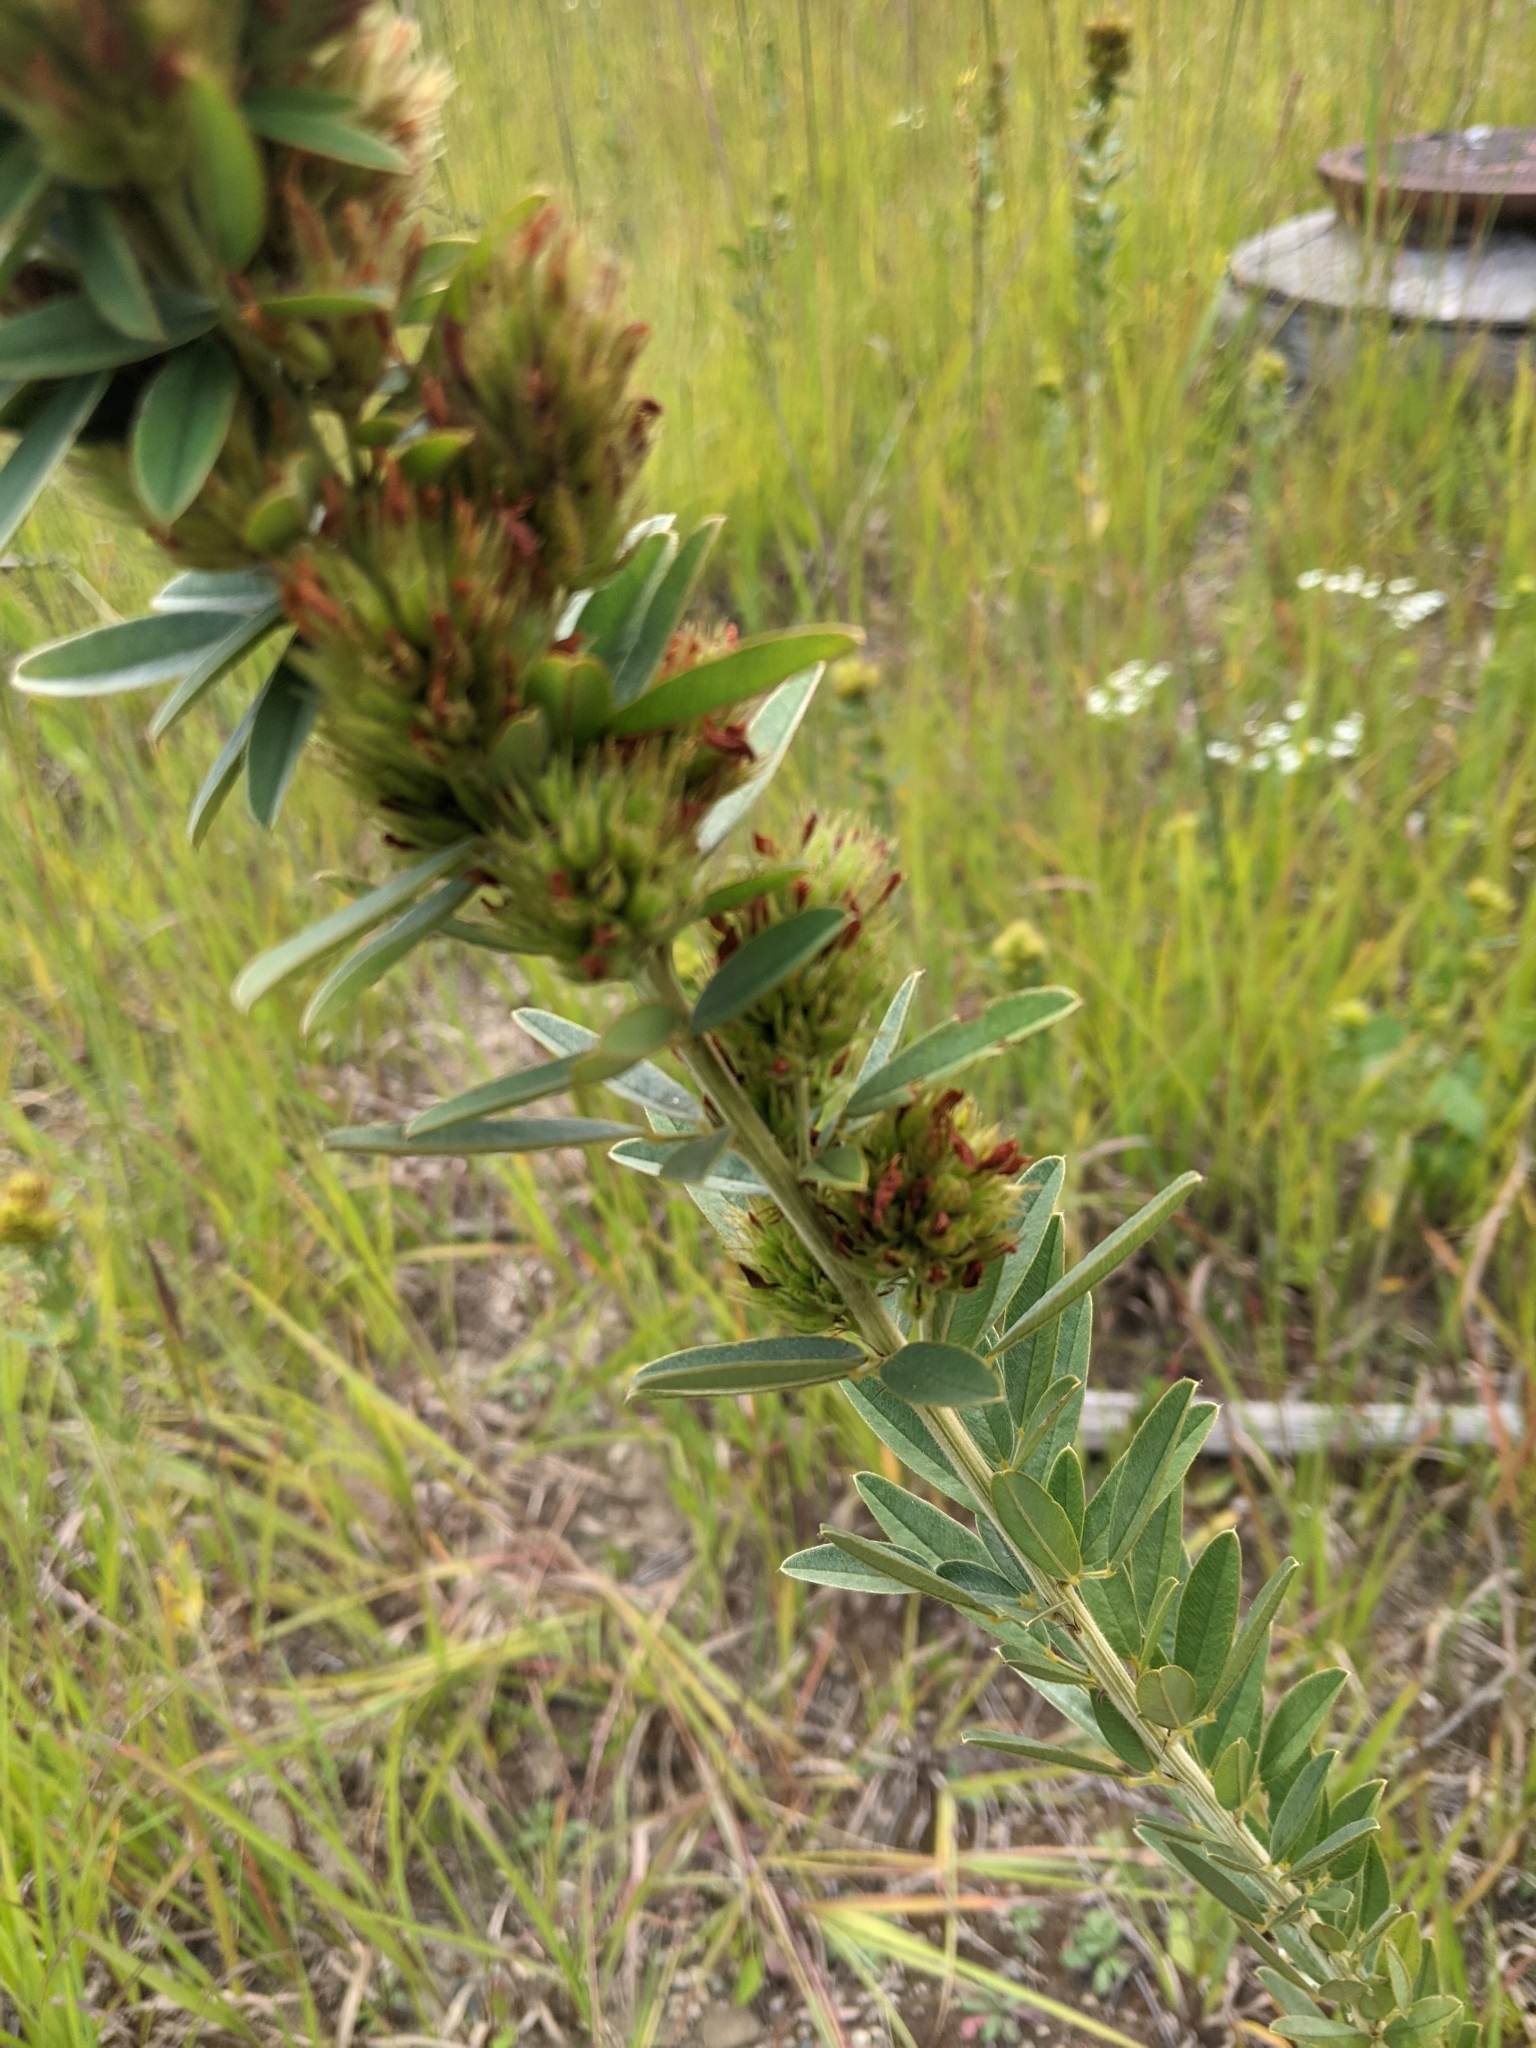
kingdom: Plantae
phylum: Tracheophyta
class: Magnoliopsida
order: Fabales
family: Fabaceae
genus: Lespedeza
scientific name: Lespedeza capitata
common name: Dusty clover
